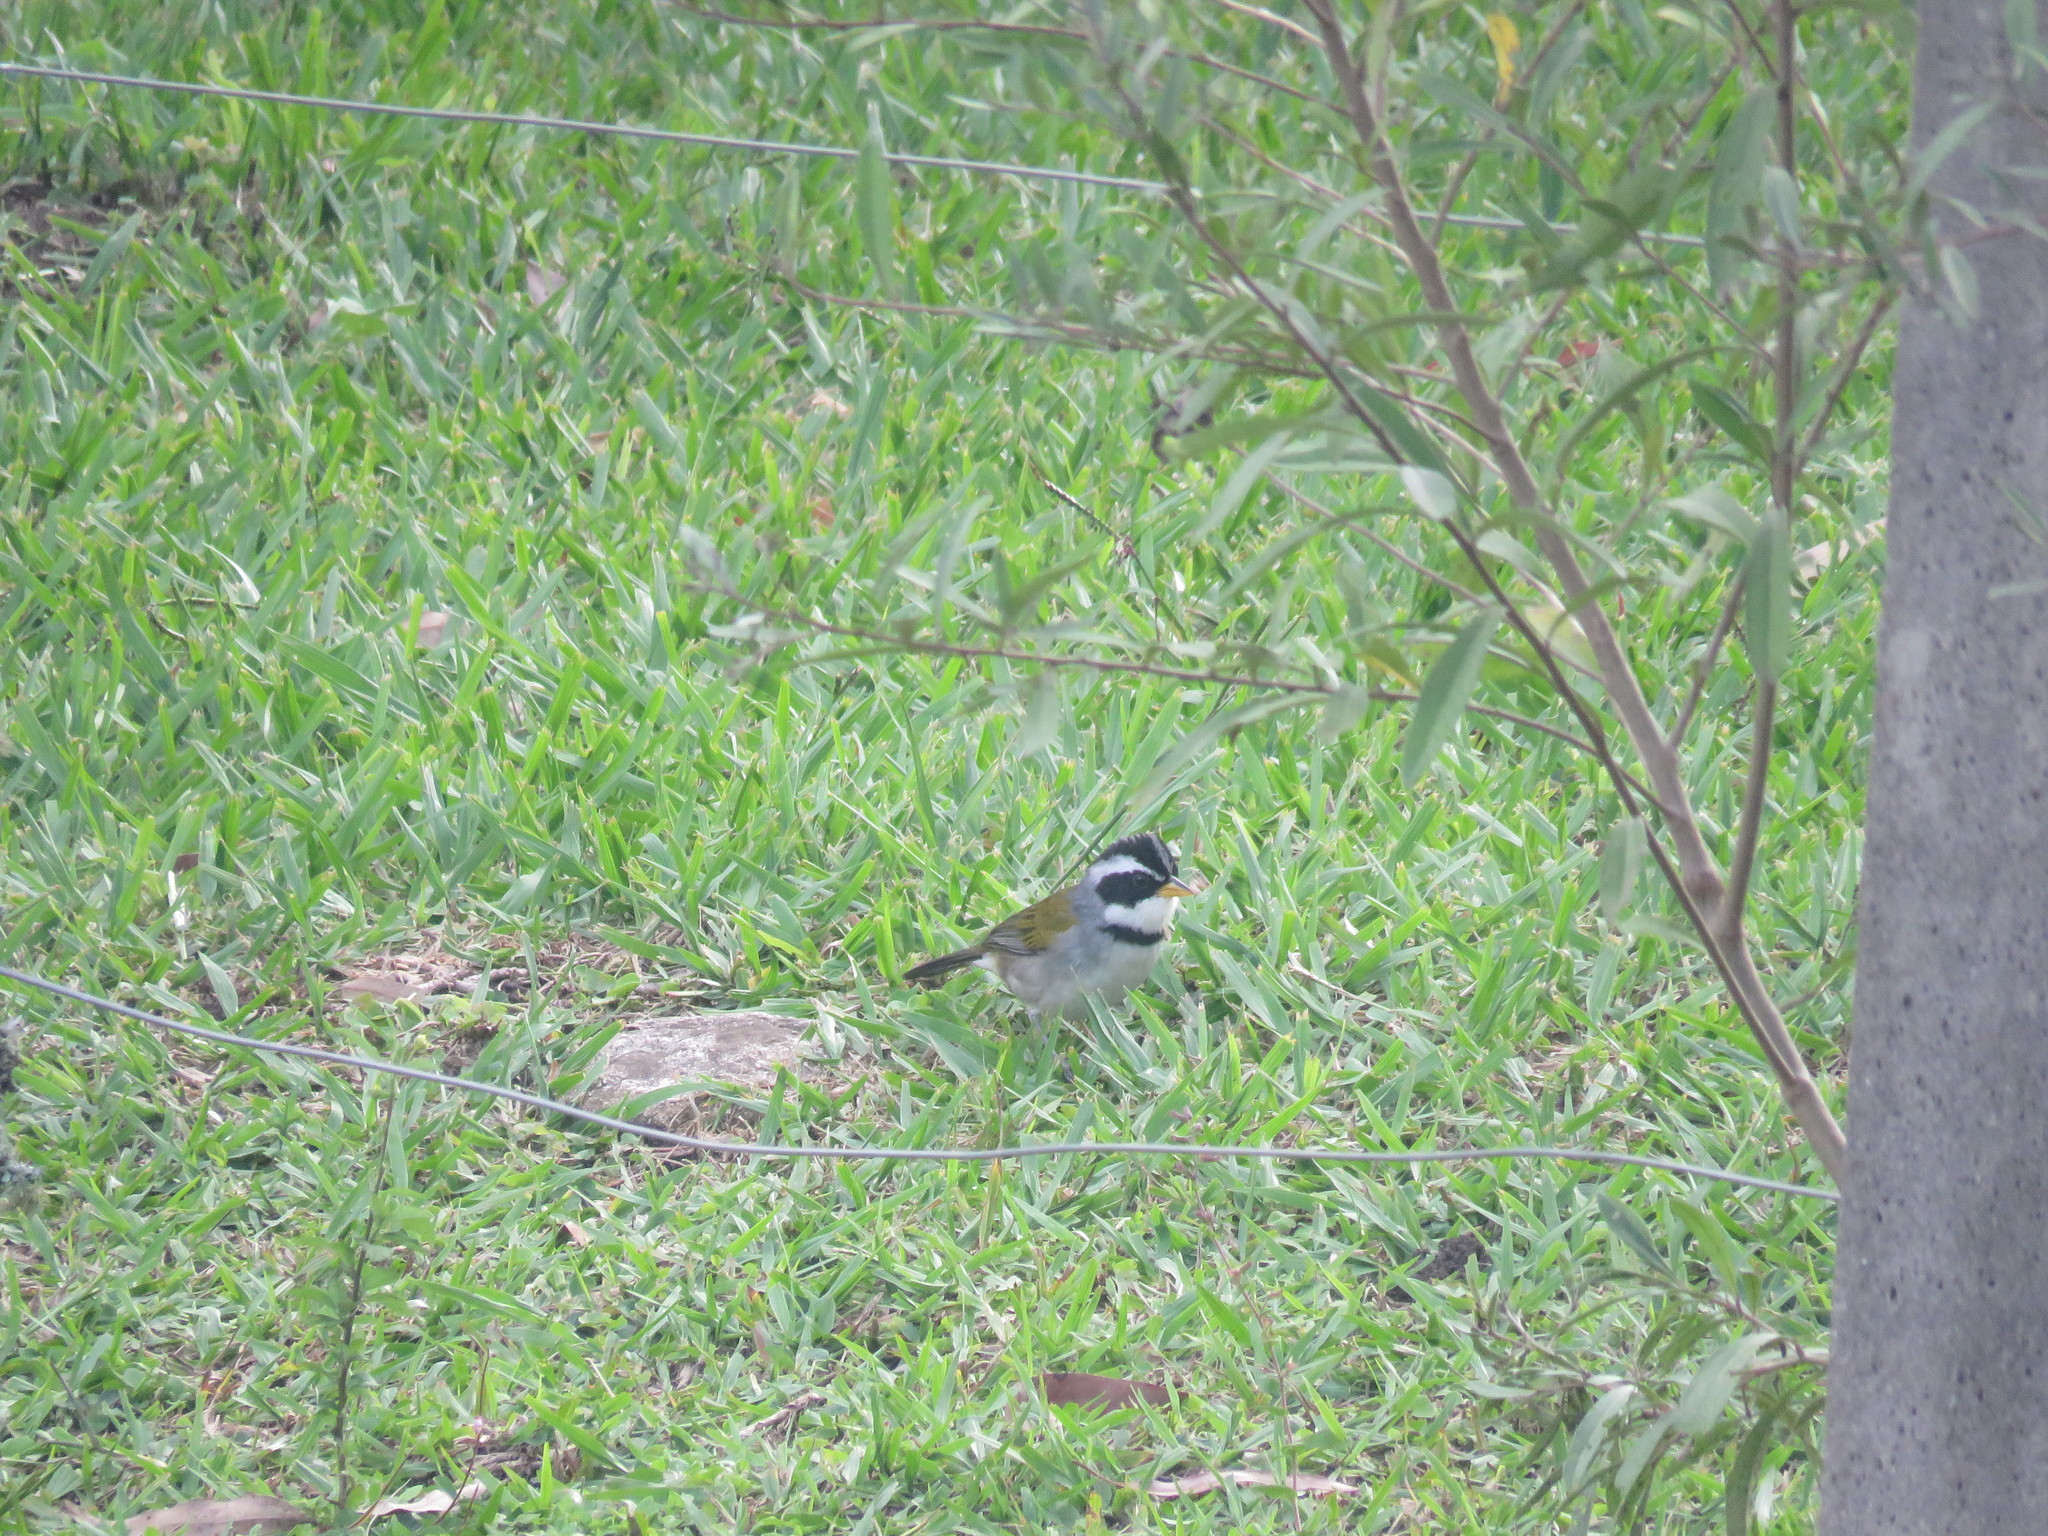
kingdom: Animalia
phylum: Chordata
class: Aves
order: Passeriformes
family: Passerellidae
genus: Arremon
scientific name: Arremon dorbignii
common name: Moss-backed sparrow
